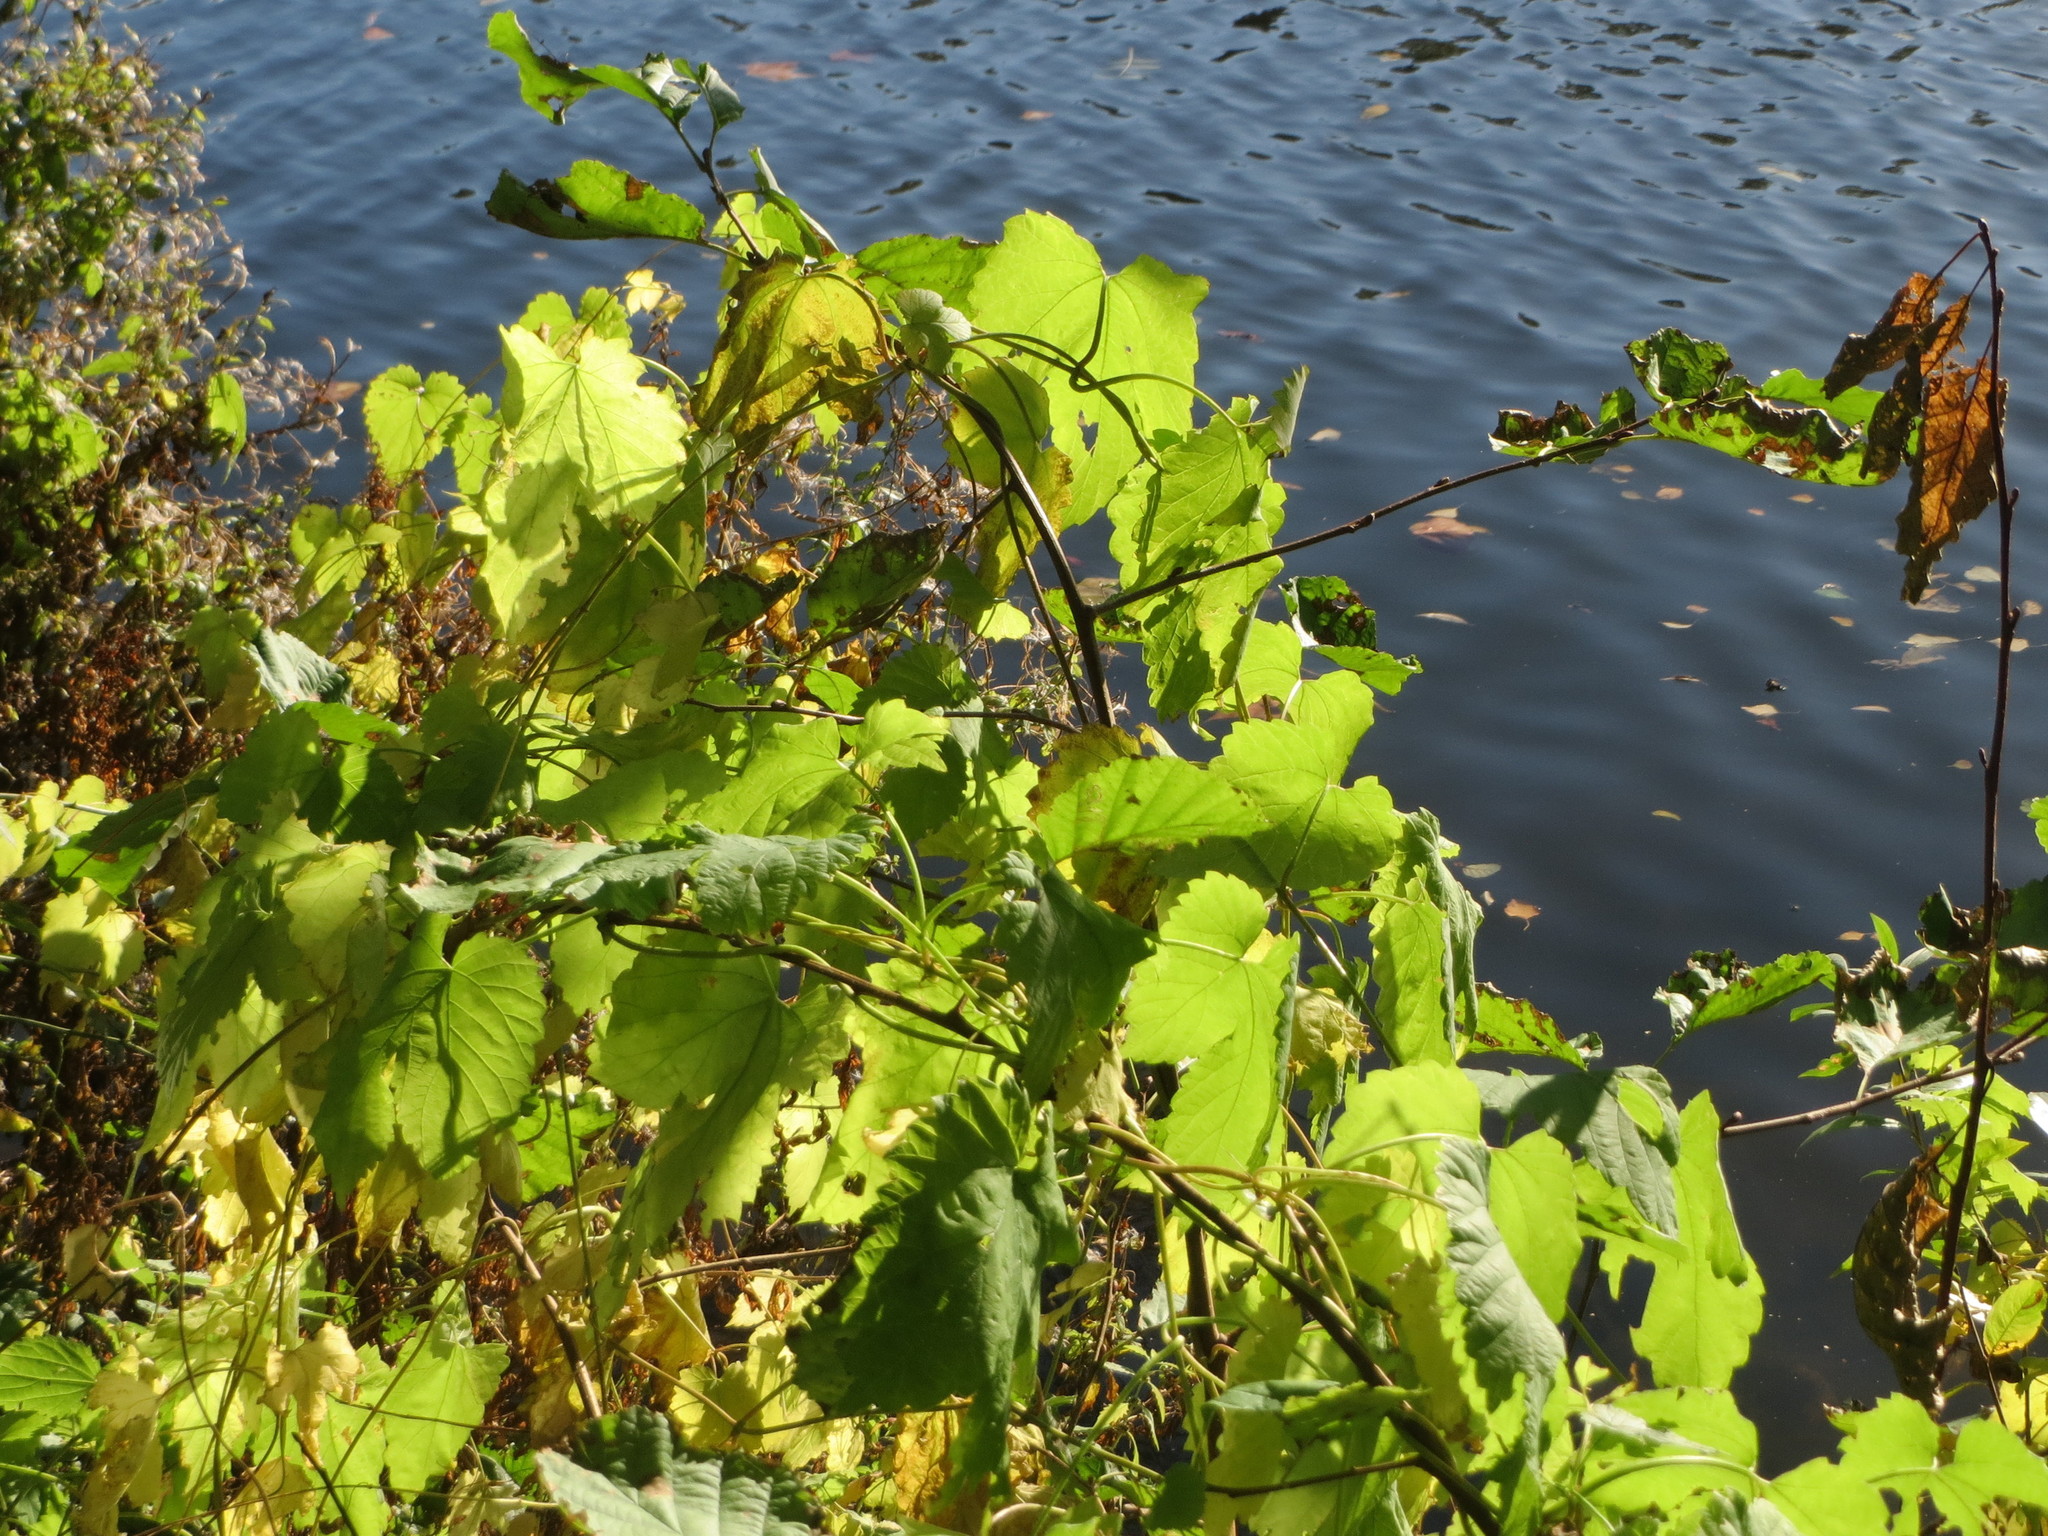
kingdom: Plantae
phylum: Tracheophyta
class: Magnoliopsida
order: Rosales
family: Cannabaceae
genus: Humulus
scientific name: Humulus lupulus
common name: Hop
